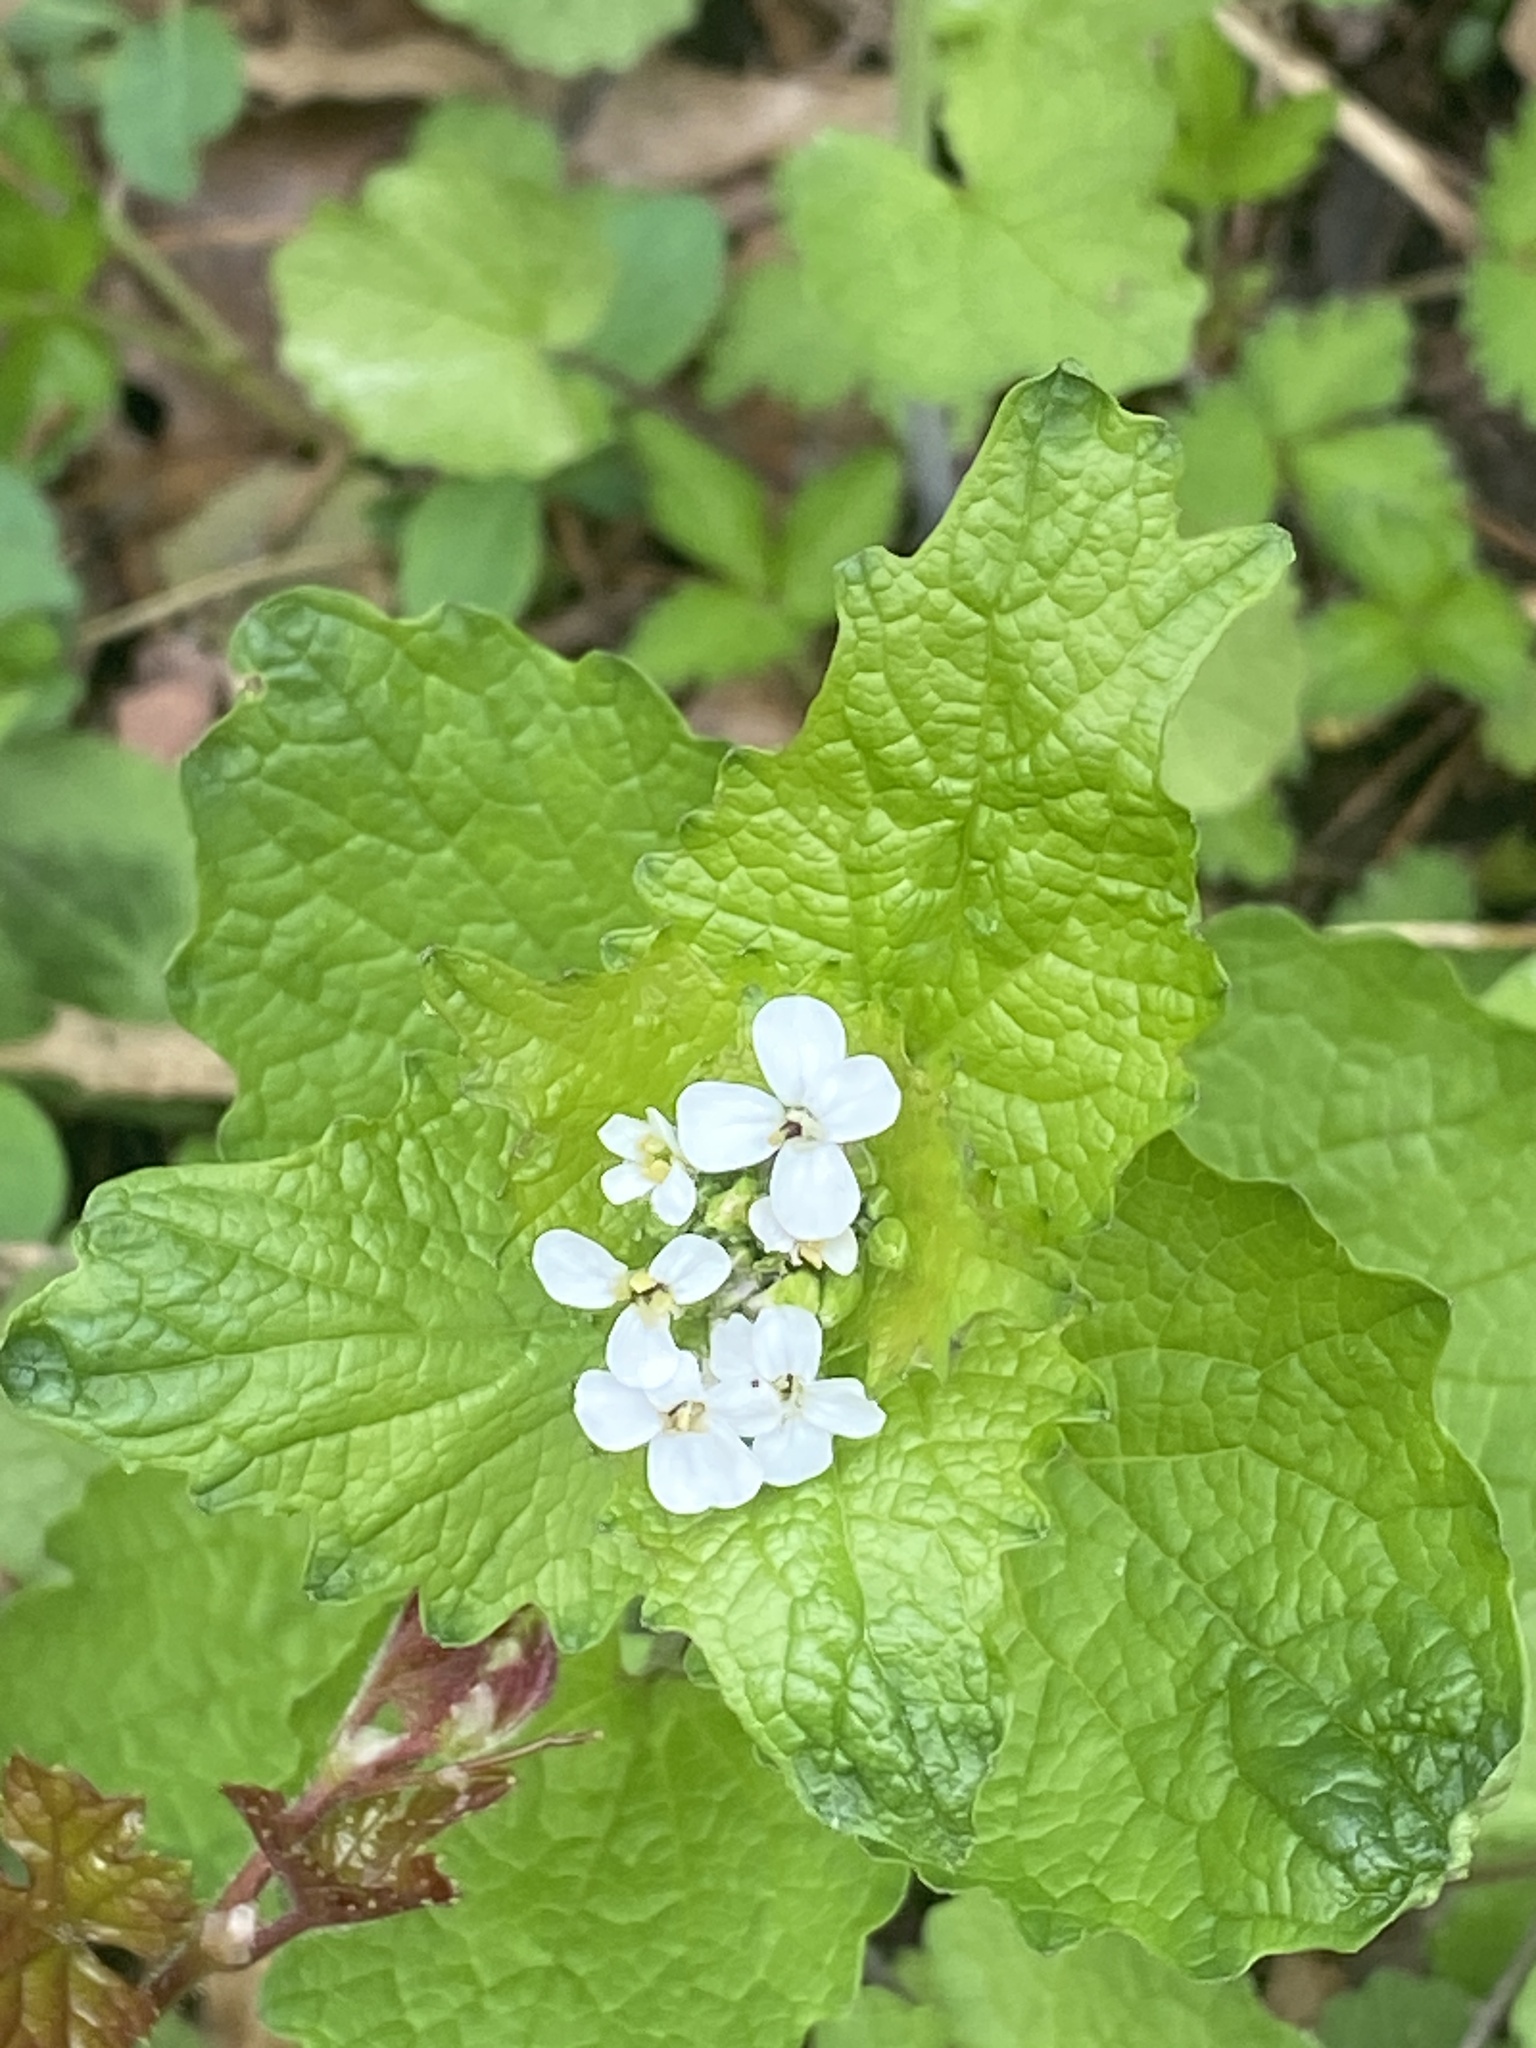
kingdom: Plantae
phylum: Tracheophyta
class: Magnoliopsida
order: Brassicales
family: Brassicaceae
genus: Alliaria
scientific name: Alliaria petiolata
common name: Garlic mustard
